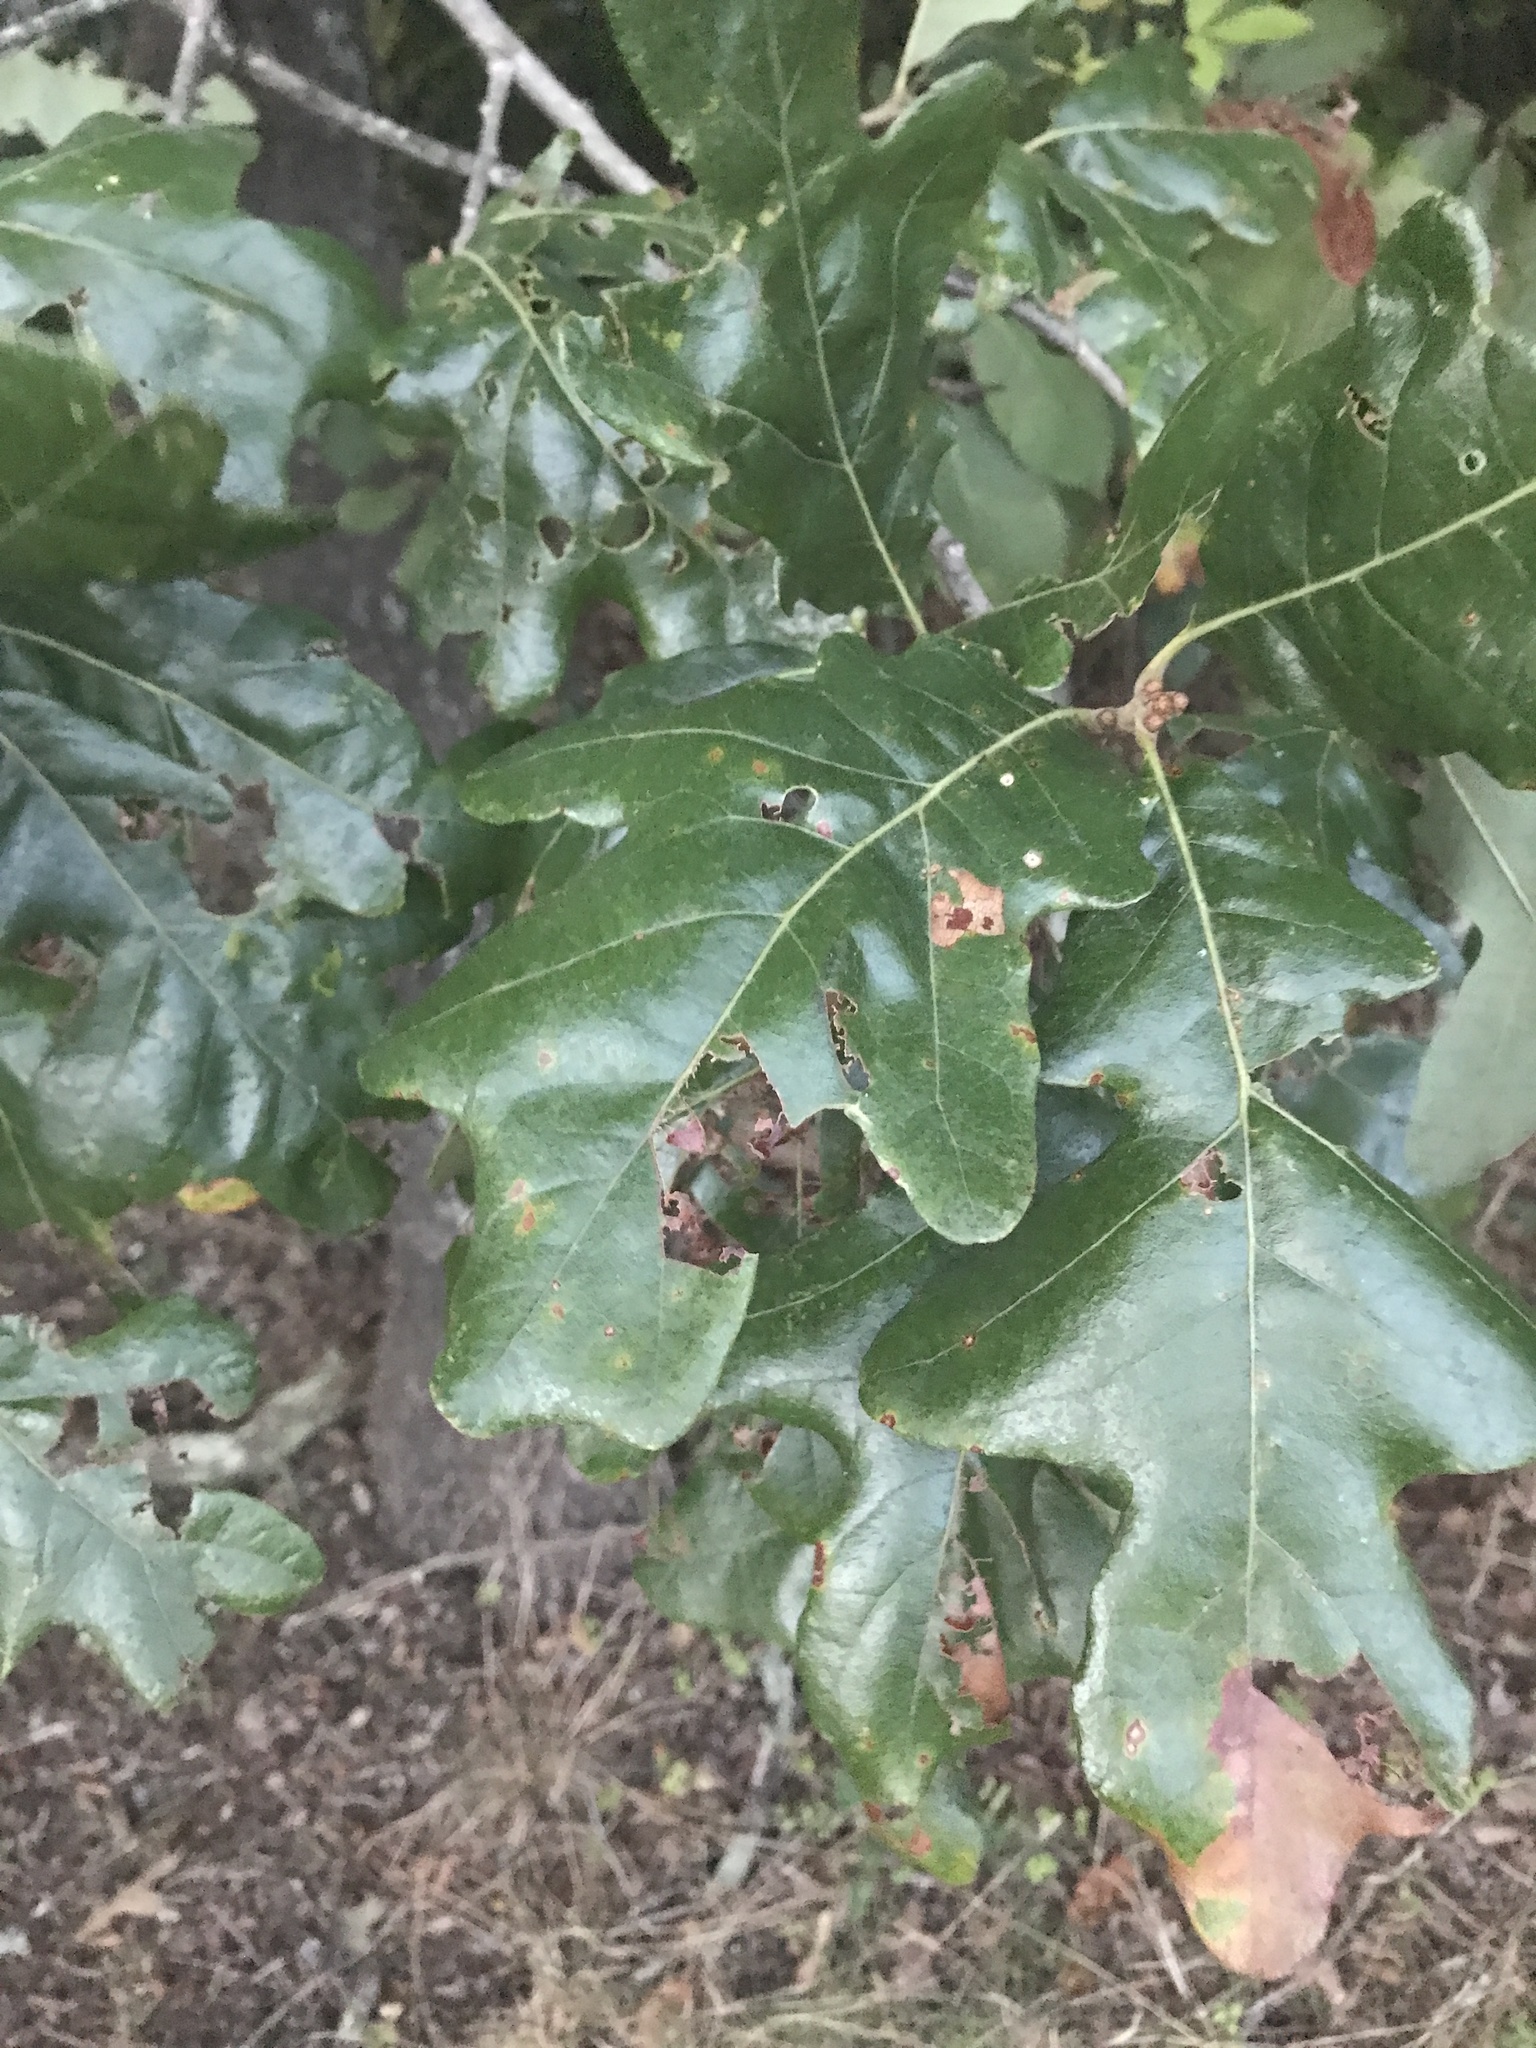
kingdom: Plantae
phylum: Tracheophyta
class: Magnoliopsida
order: Fagales
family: Fagaceae
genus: Quercus
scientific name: Quercus stellata
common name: Post oak
